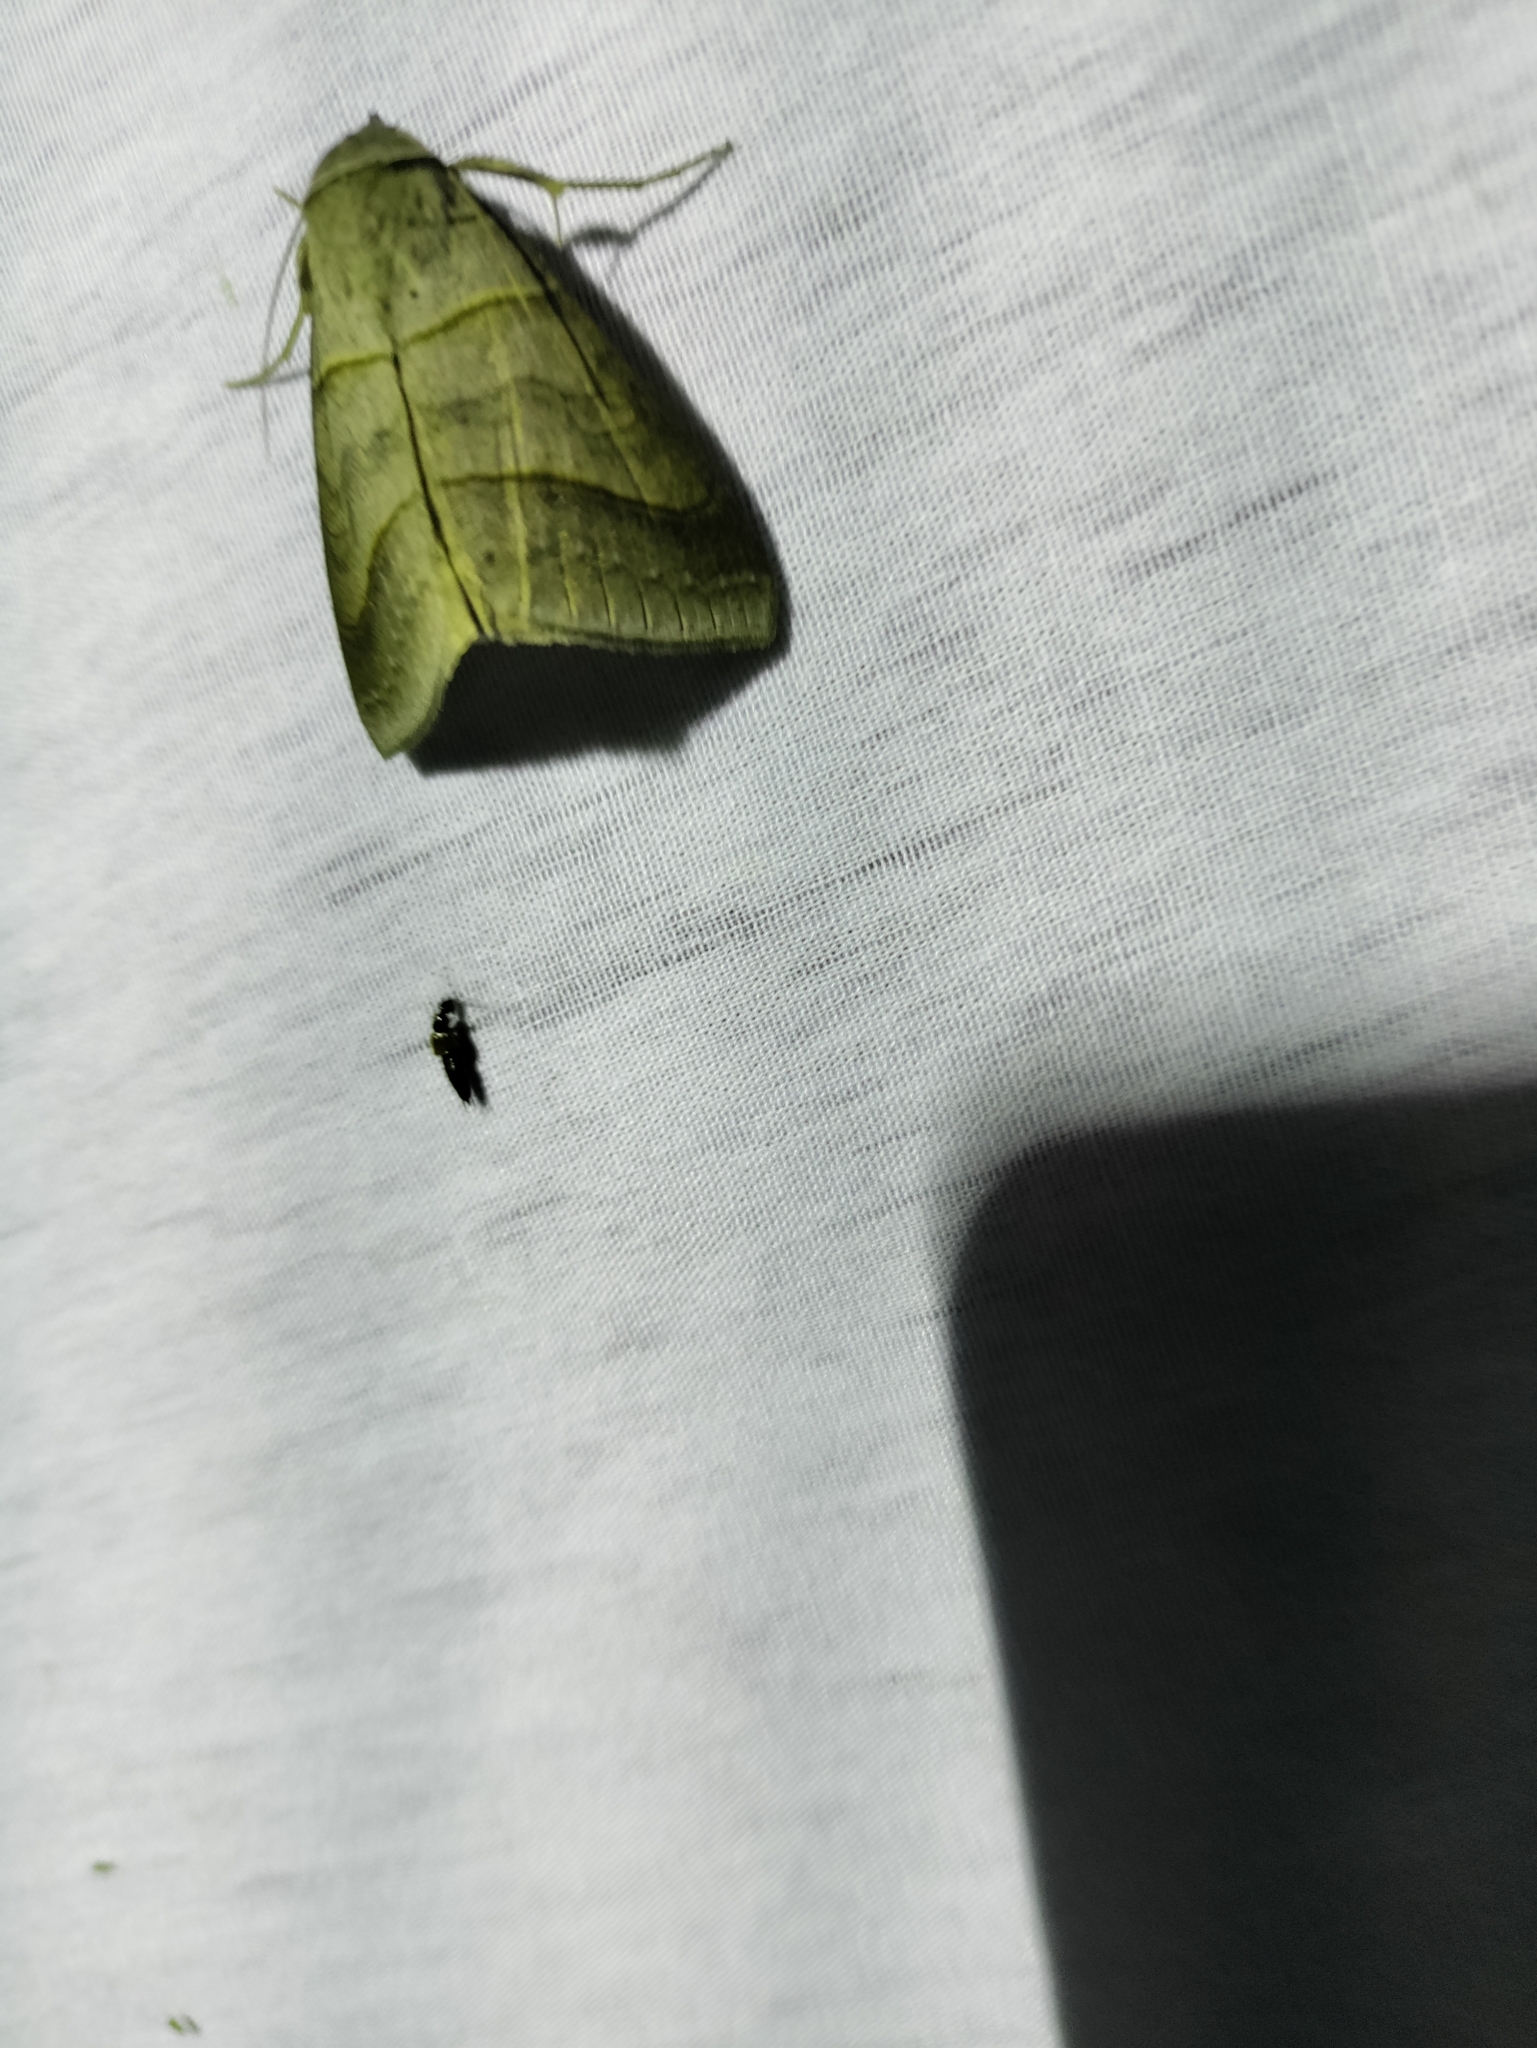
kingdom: Animalia
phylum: Arthropoda
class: Insecta
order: Lepidoptera
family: Erebidae
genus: Mocis
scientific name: Mocis texana
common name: Texas mocis moth
